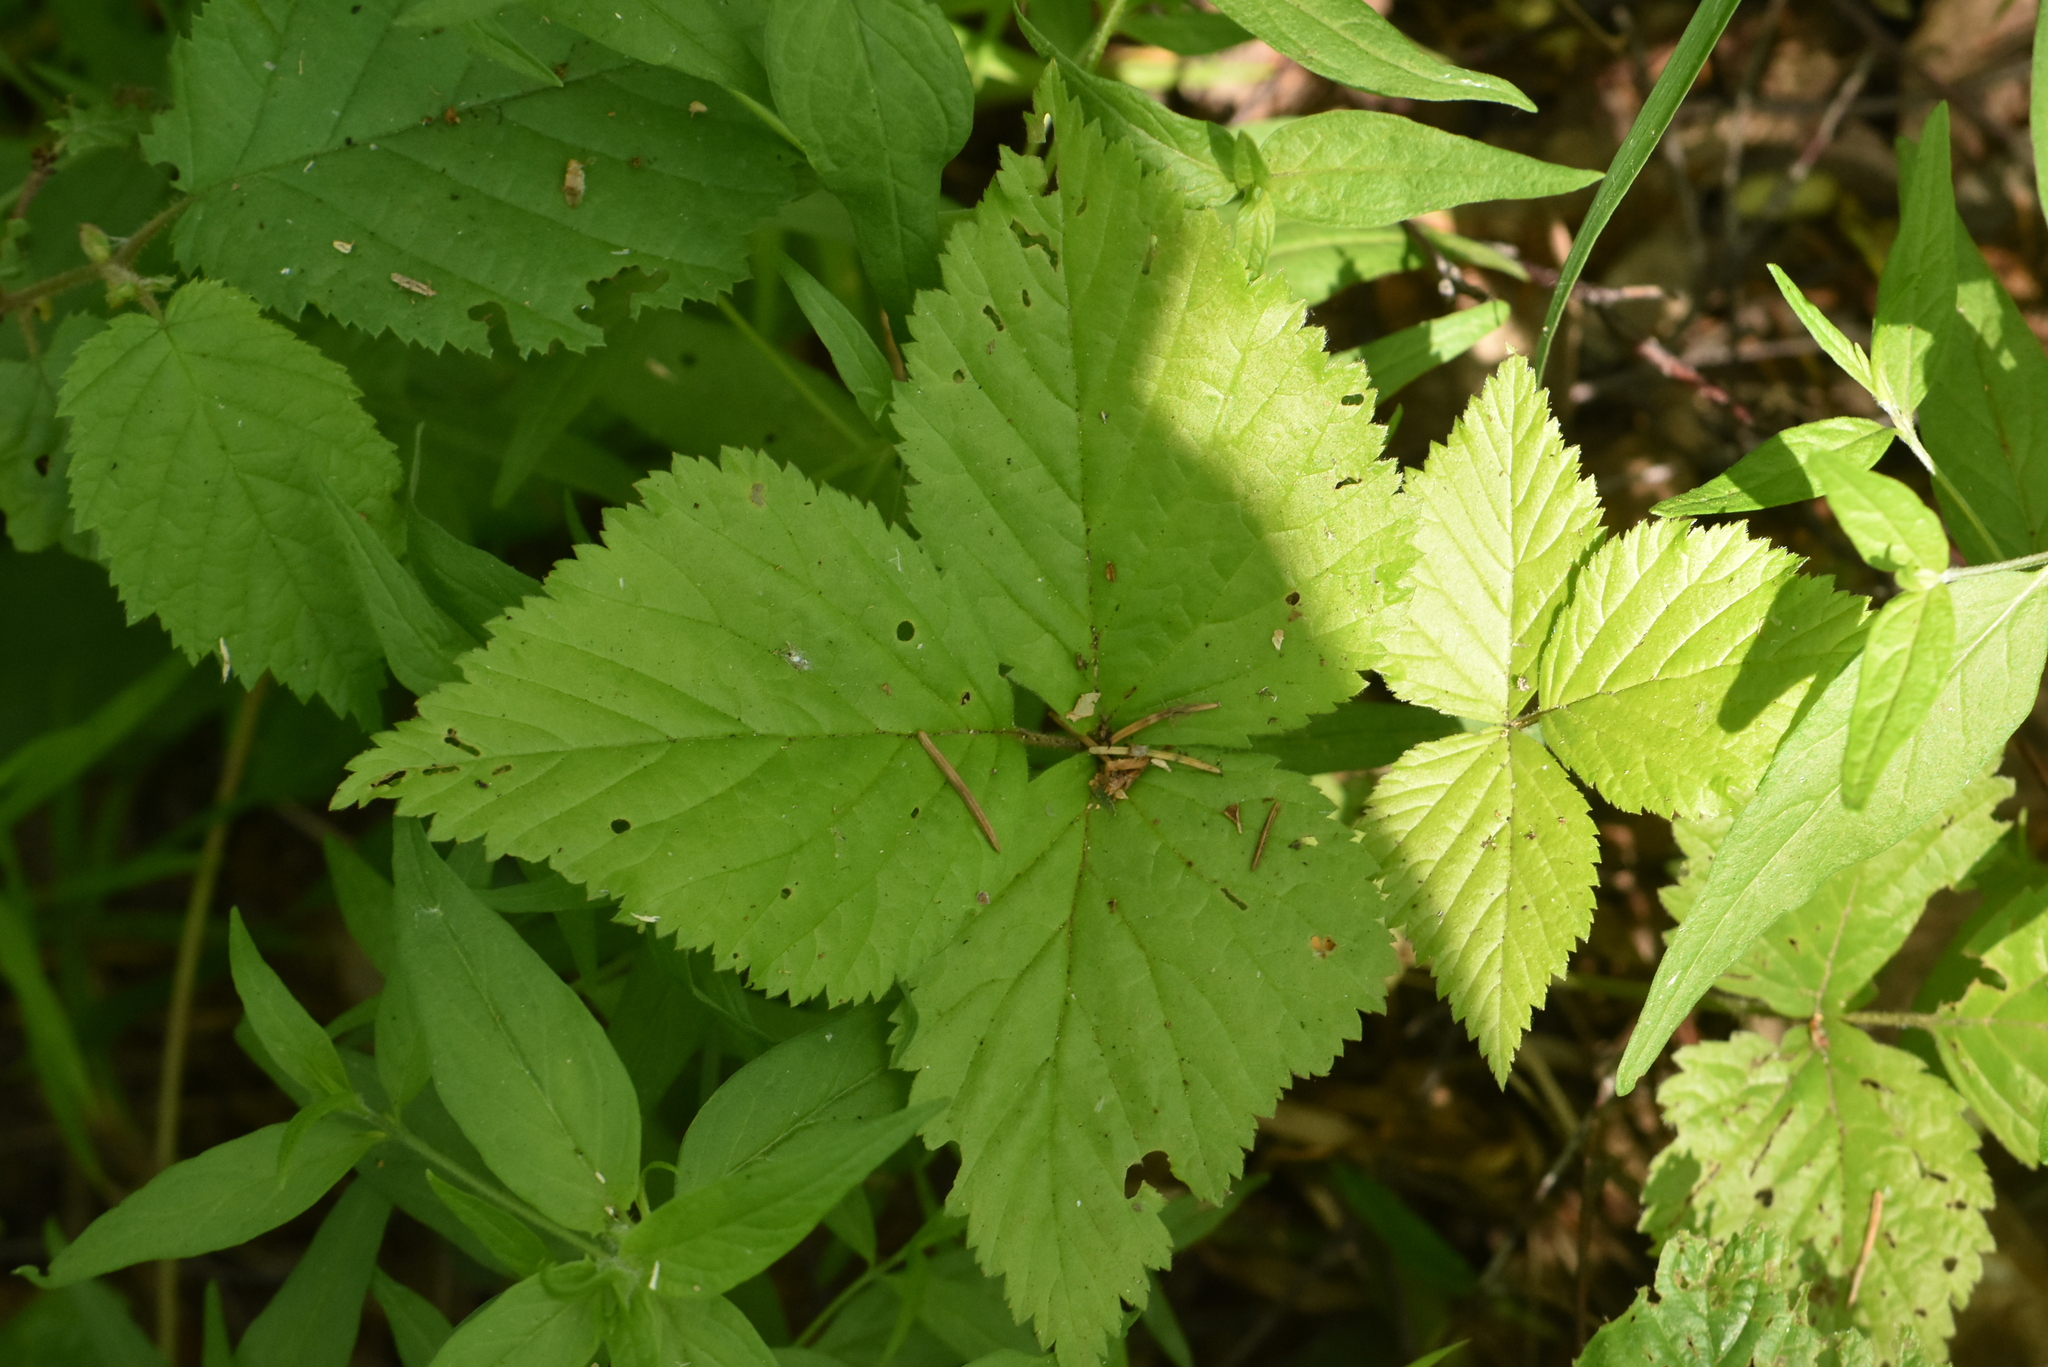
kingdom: Plantae
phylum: Tracheophyta
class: Magnoliopsida
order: Rosales
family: Rosaceae
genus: Rubus
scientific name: Rubus saxatilis
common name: Stone bramble
